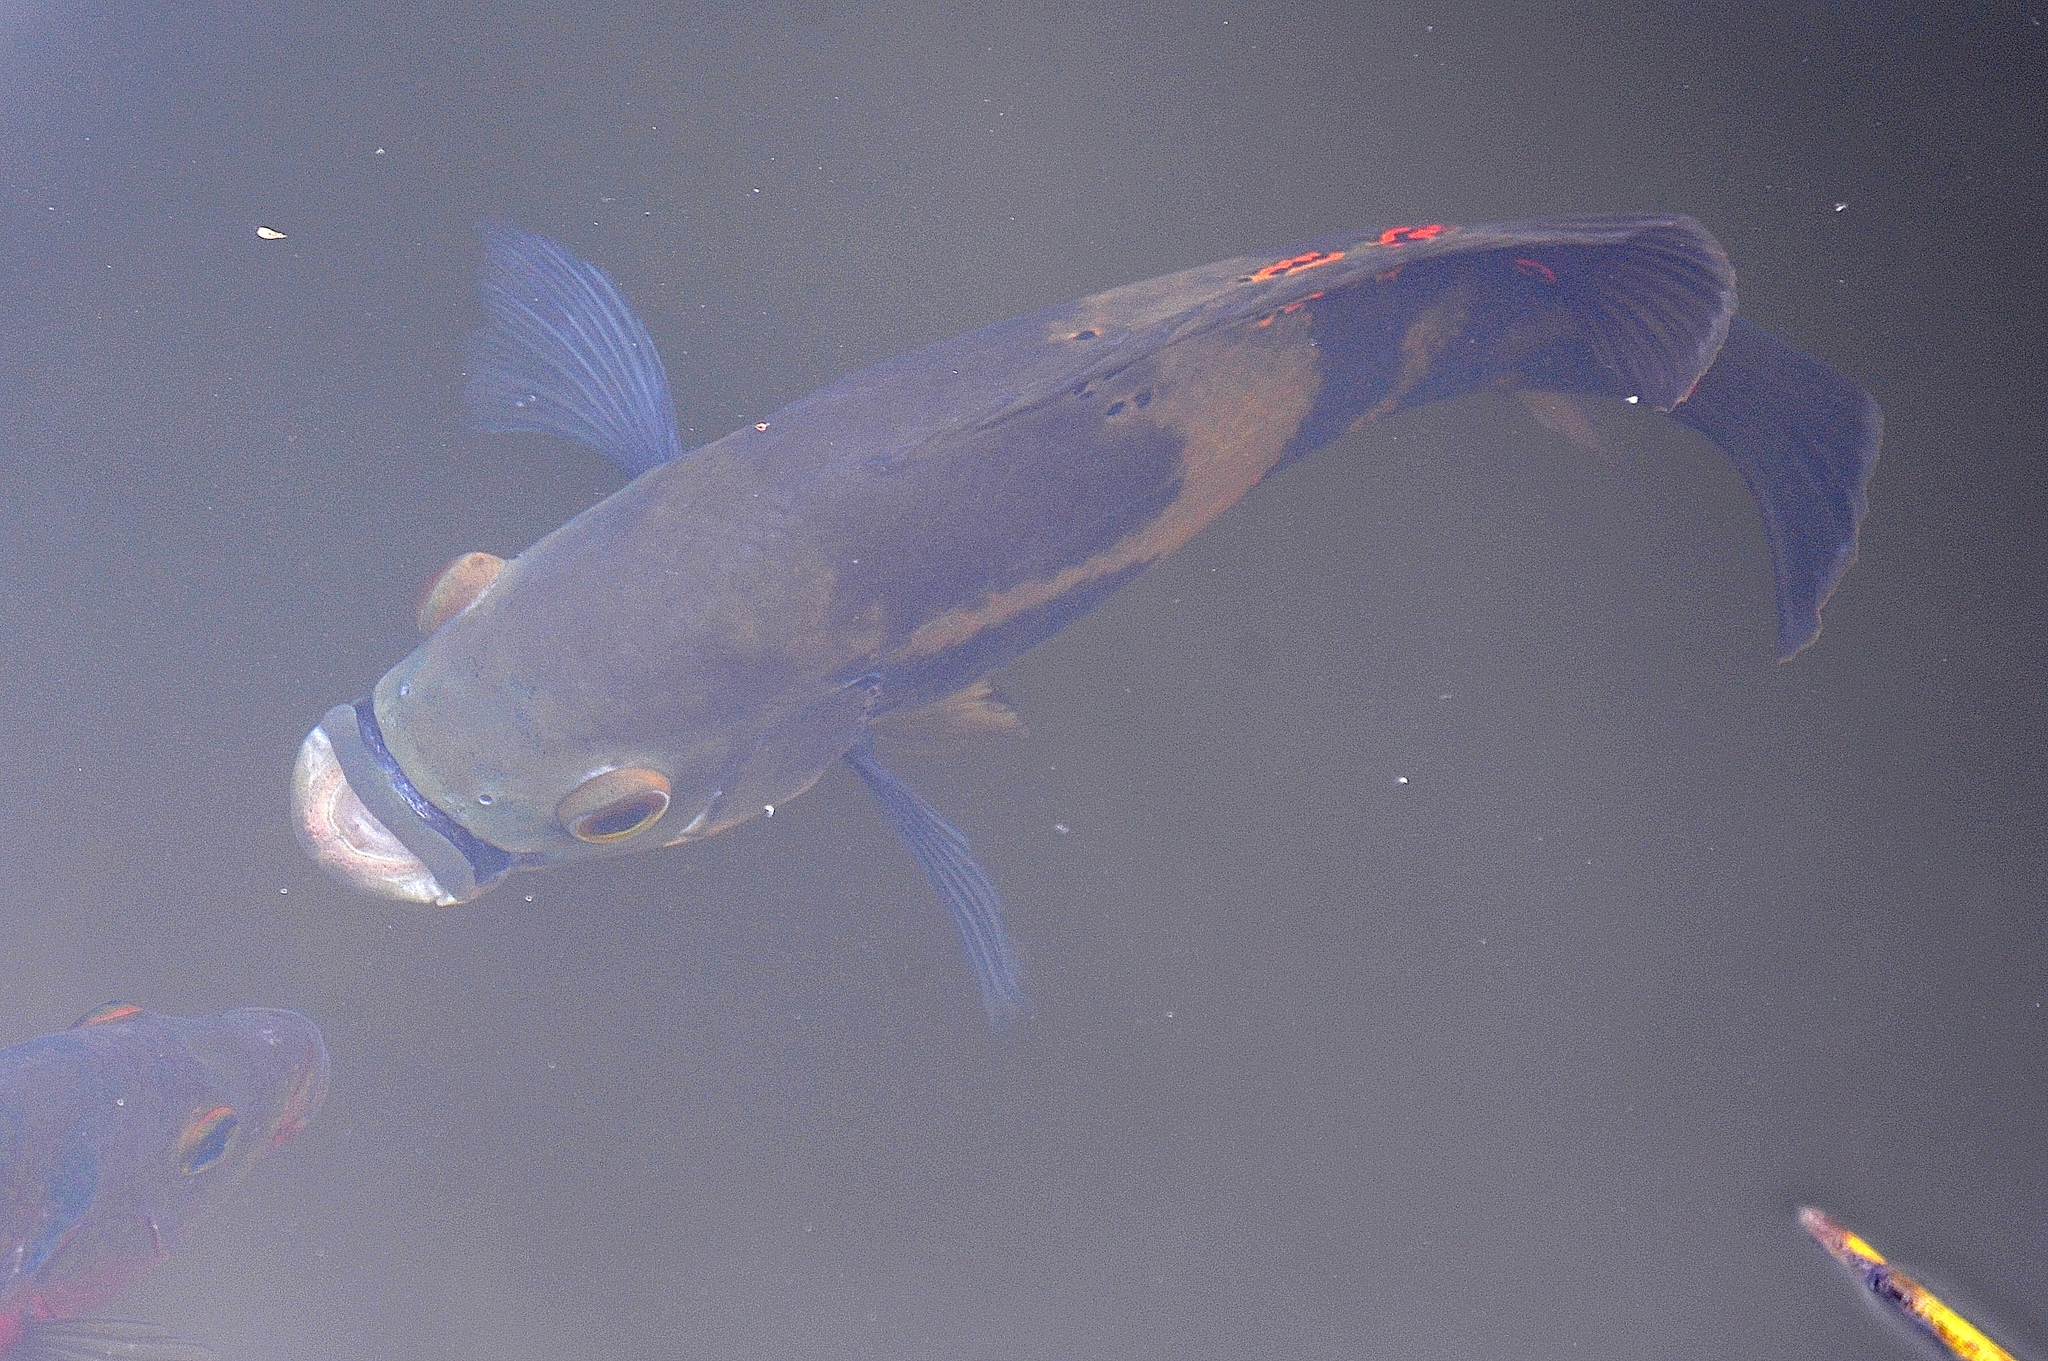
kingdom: Animalia
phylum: Chordata
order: Perciformes
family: Cichlidae
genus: Astronotus
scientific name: Astronotus ocellatus
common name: Oscar
